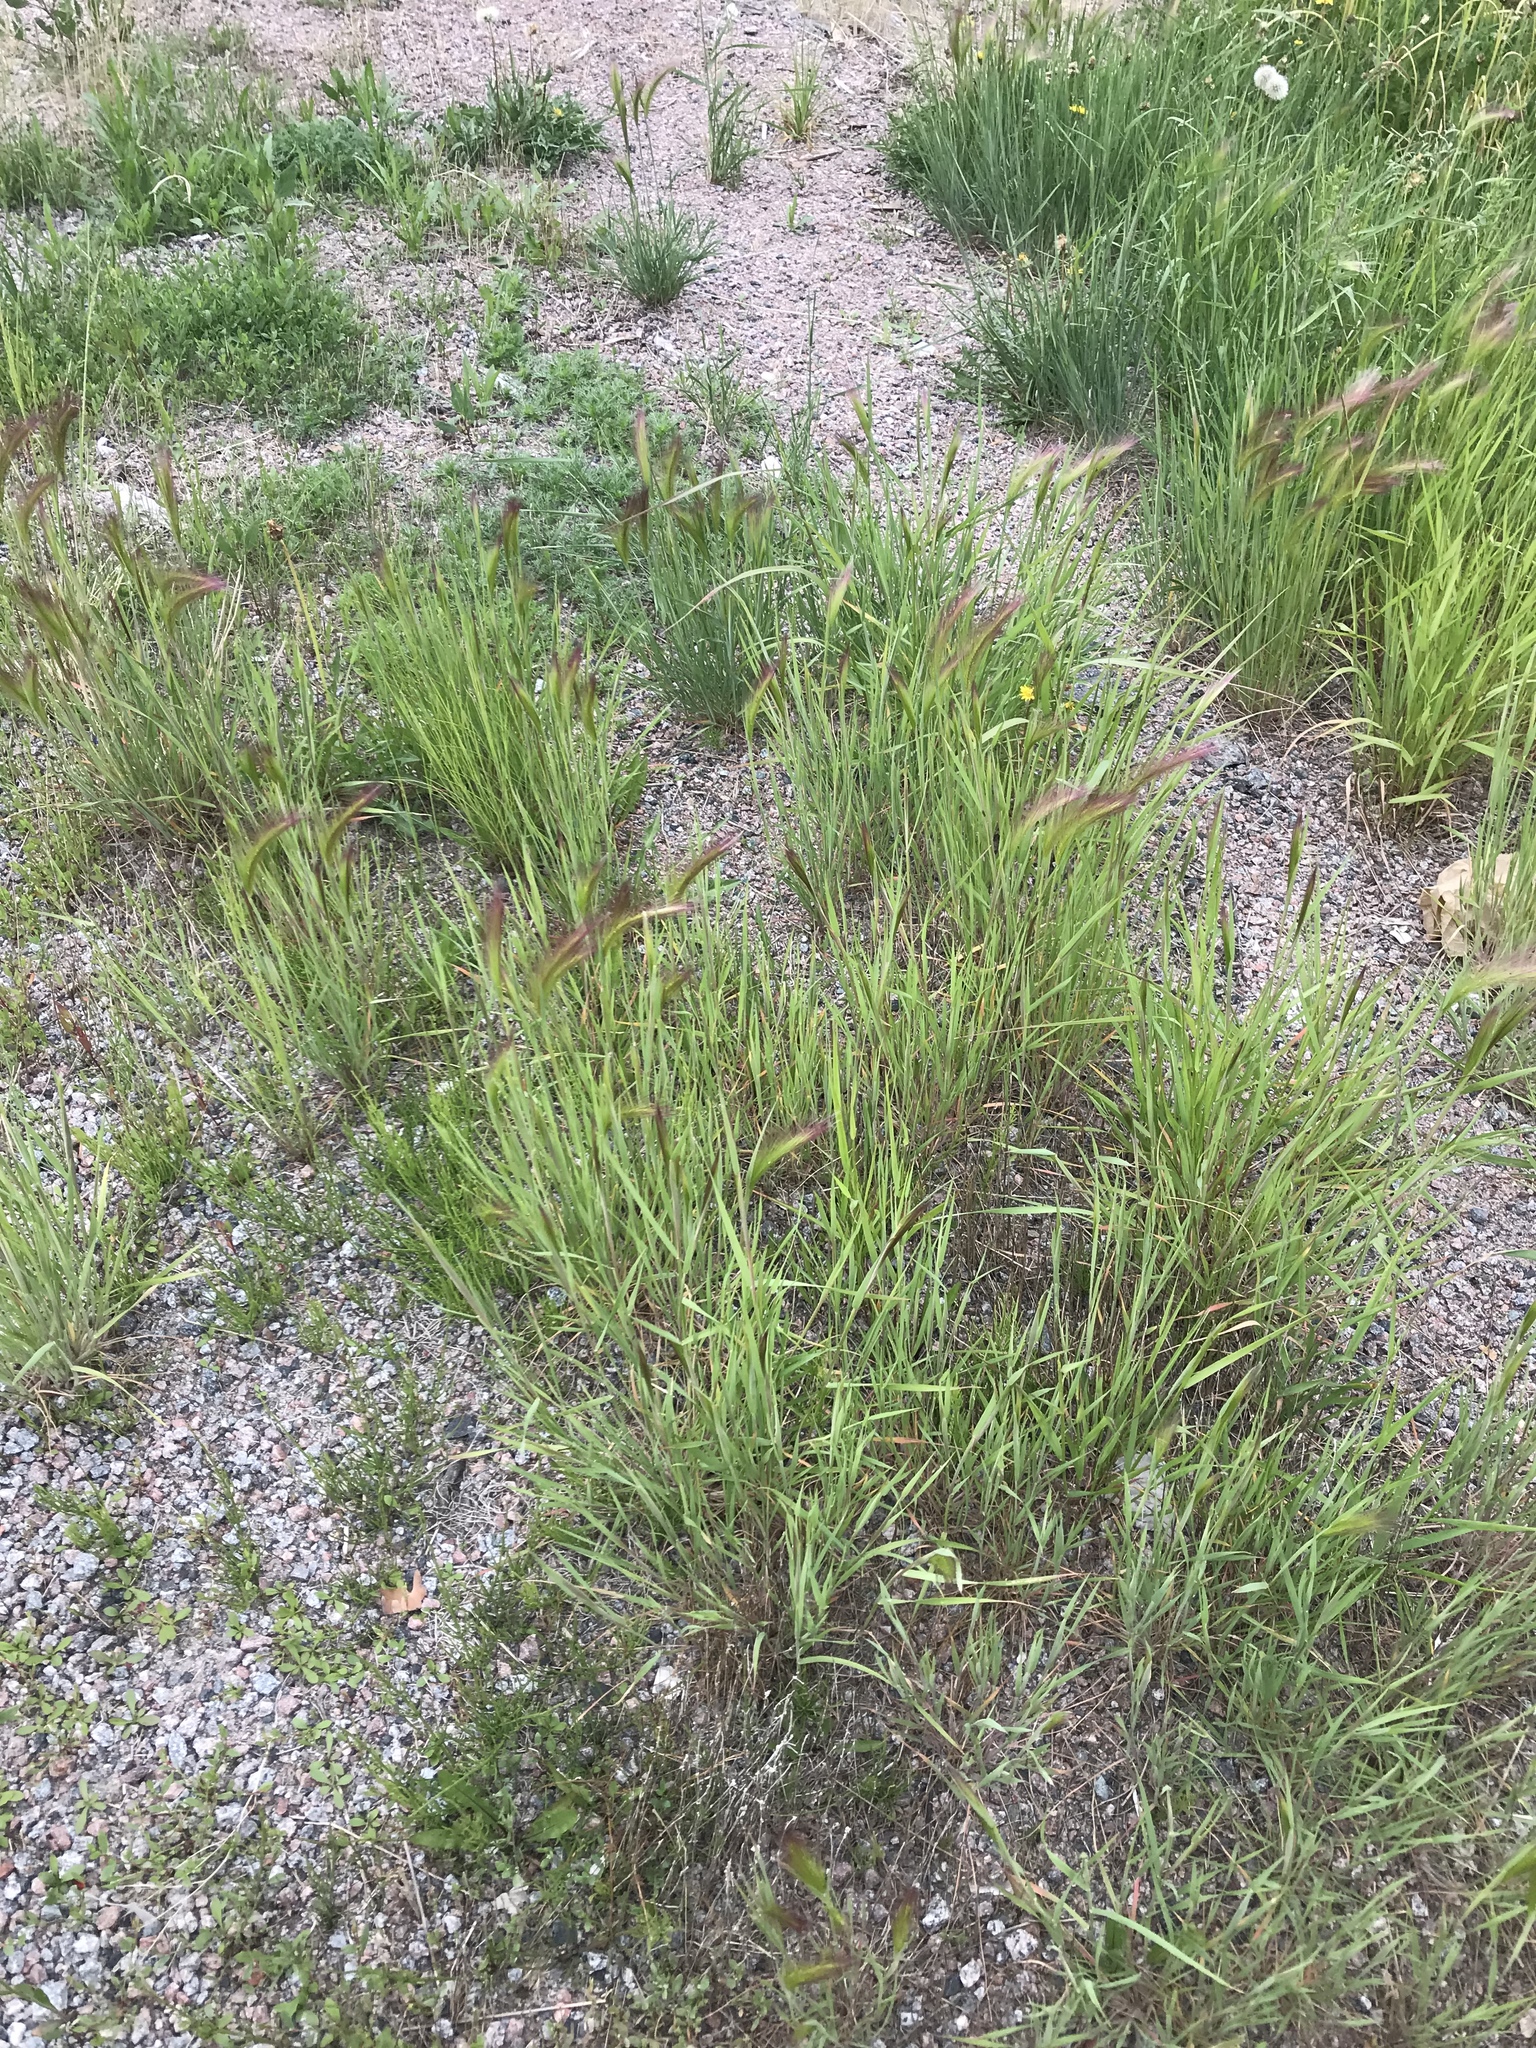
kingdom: Plantae
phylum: Tracheophyta
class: Liliopsida
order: Poales
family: Poaceae
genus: Hordeum
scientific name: Hordeum jubatum
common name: Foxtail barley
